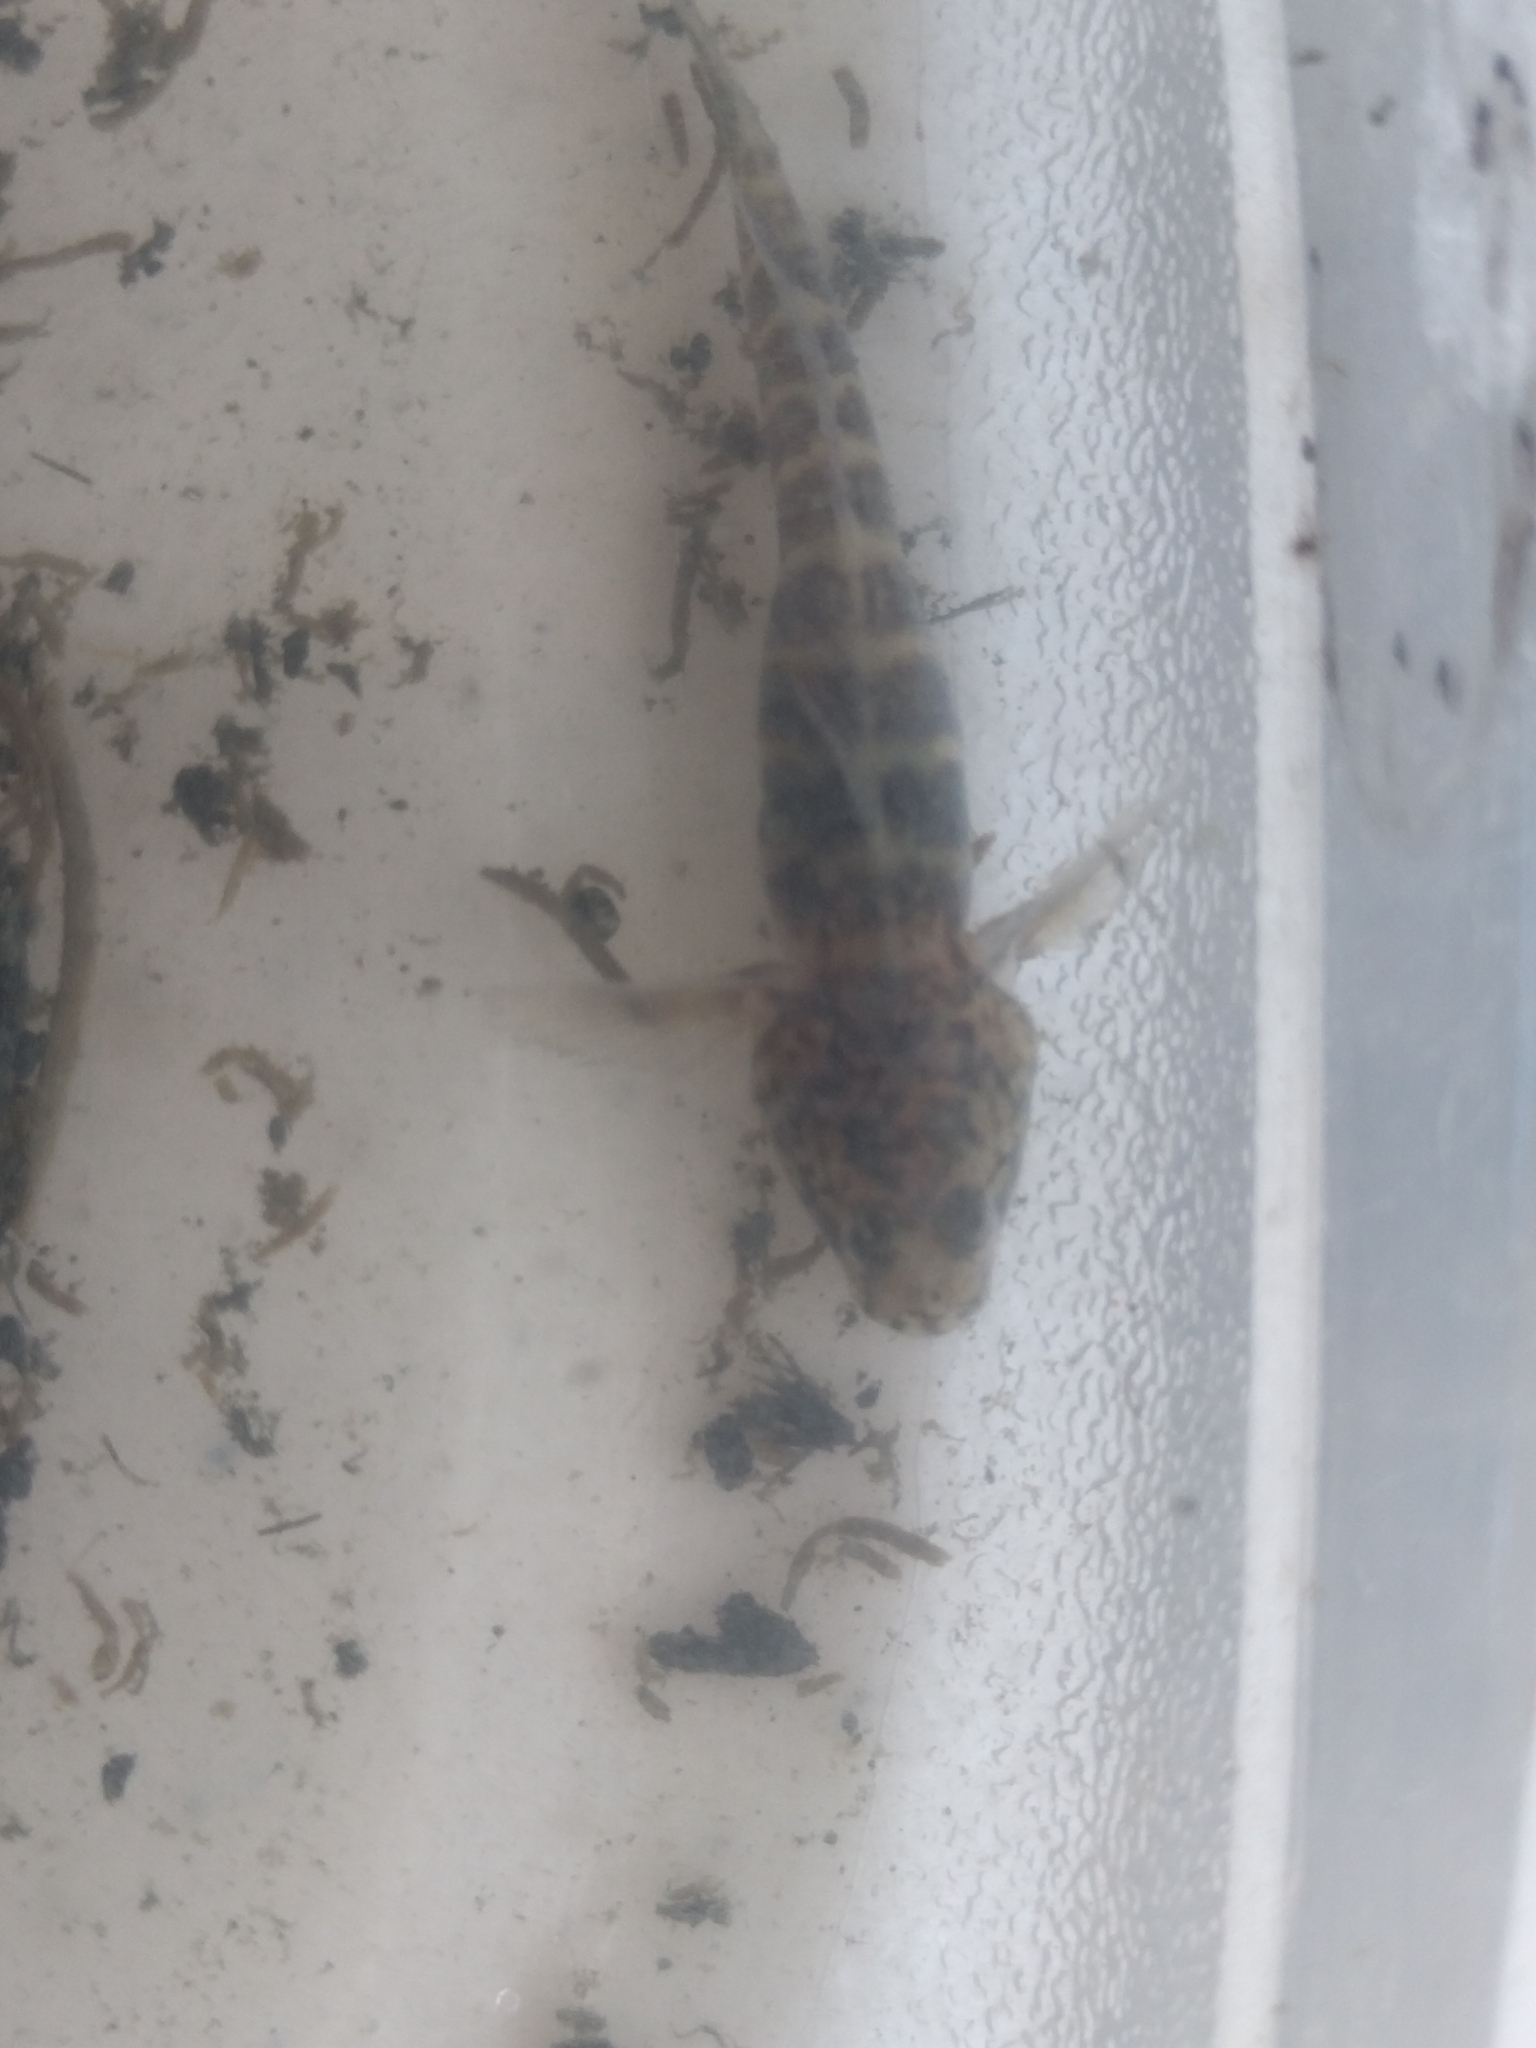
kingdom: Animalia
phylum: Chordata
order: Perciformes
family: Gobiidae
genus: Gobiosoma
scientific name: Gobiosoma bosc
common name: Naked goby
